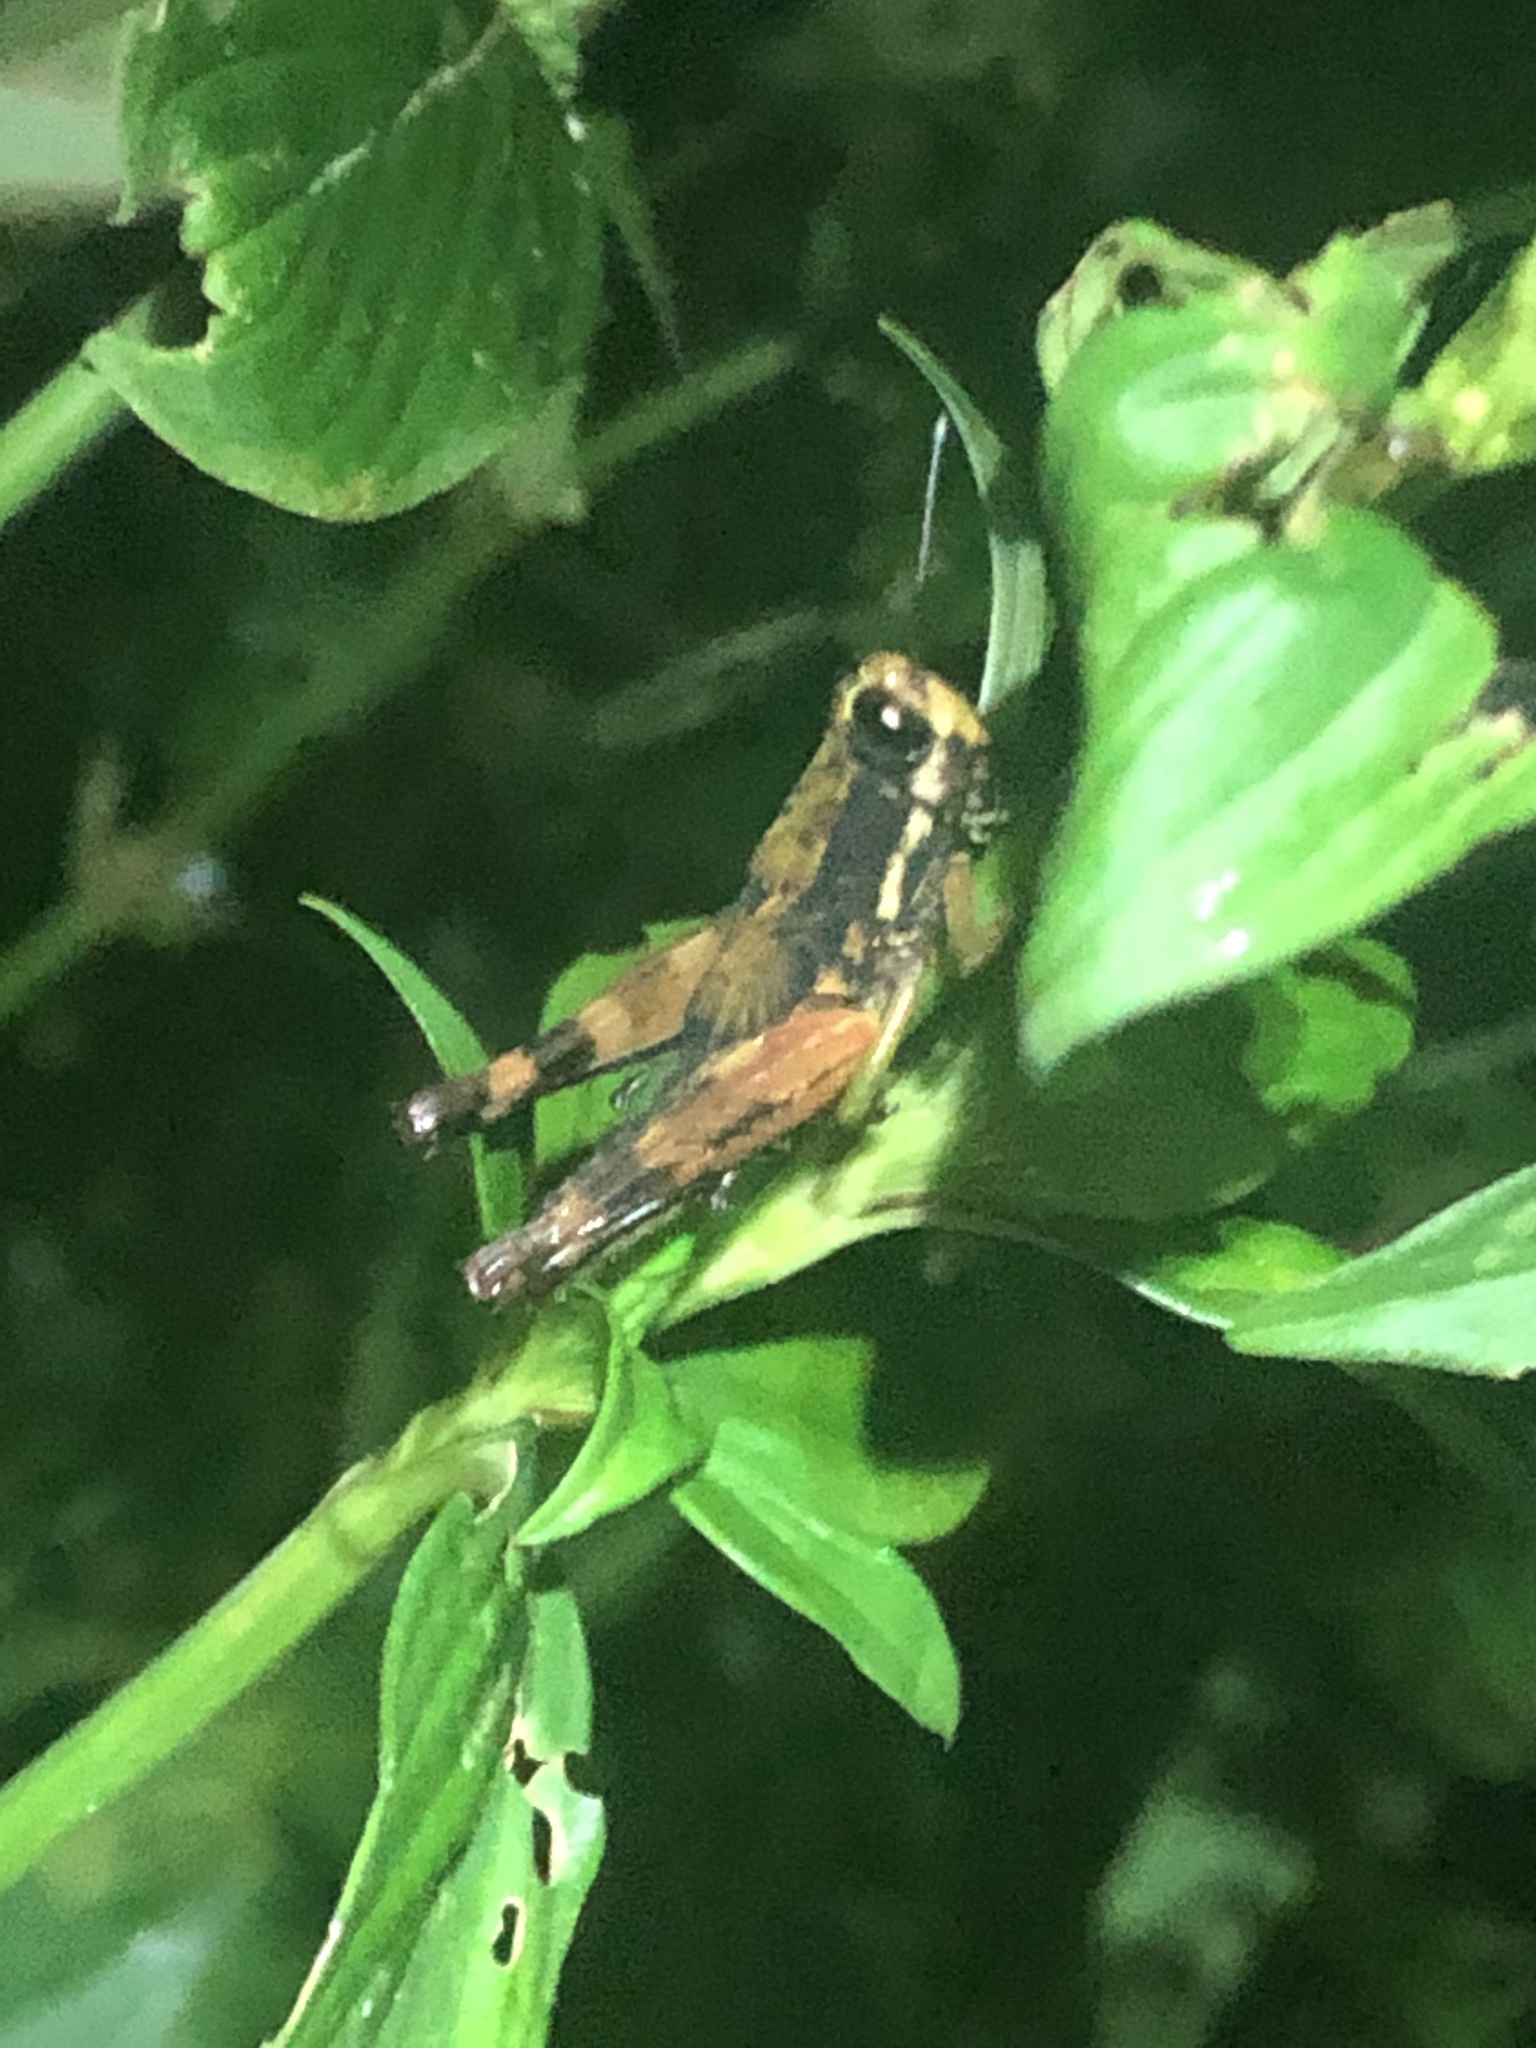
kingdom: Animalia
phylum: Arthropoda
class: Insecta
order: Orthoptera
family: Acrididae
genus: Tetrataenia
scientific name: Tetrataenia surinama
